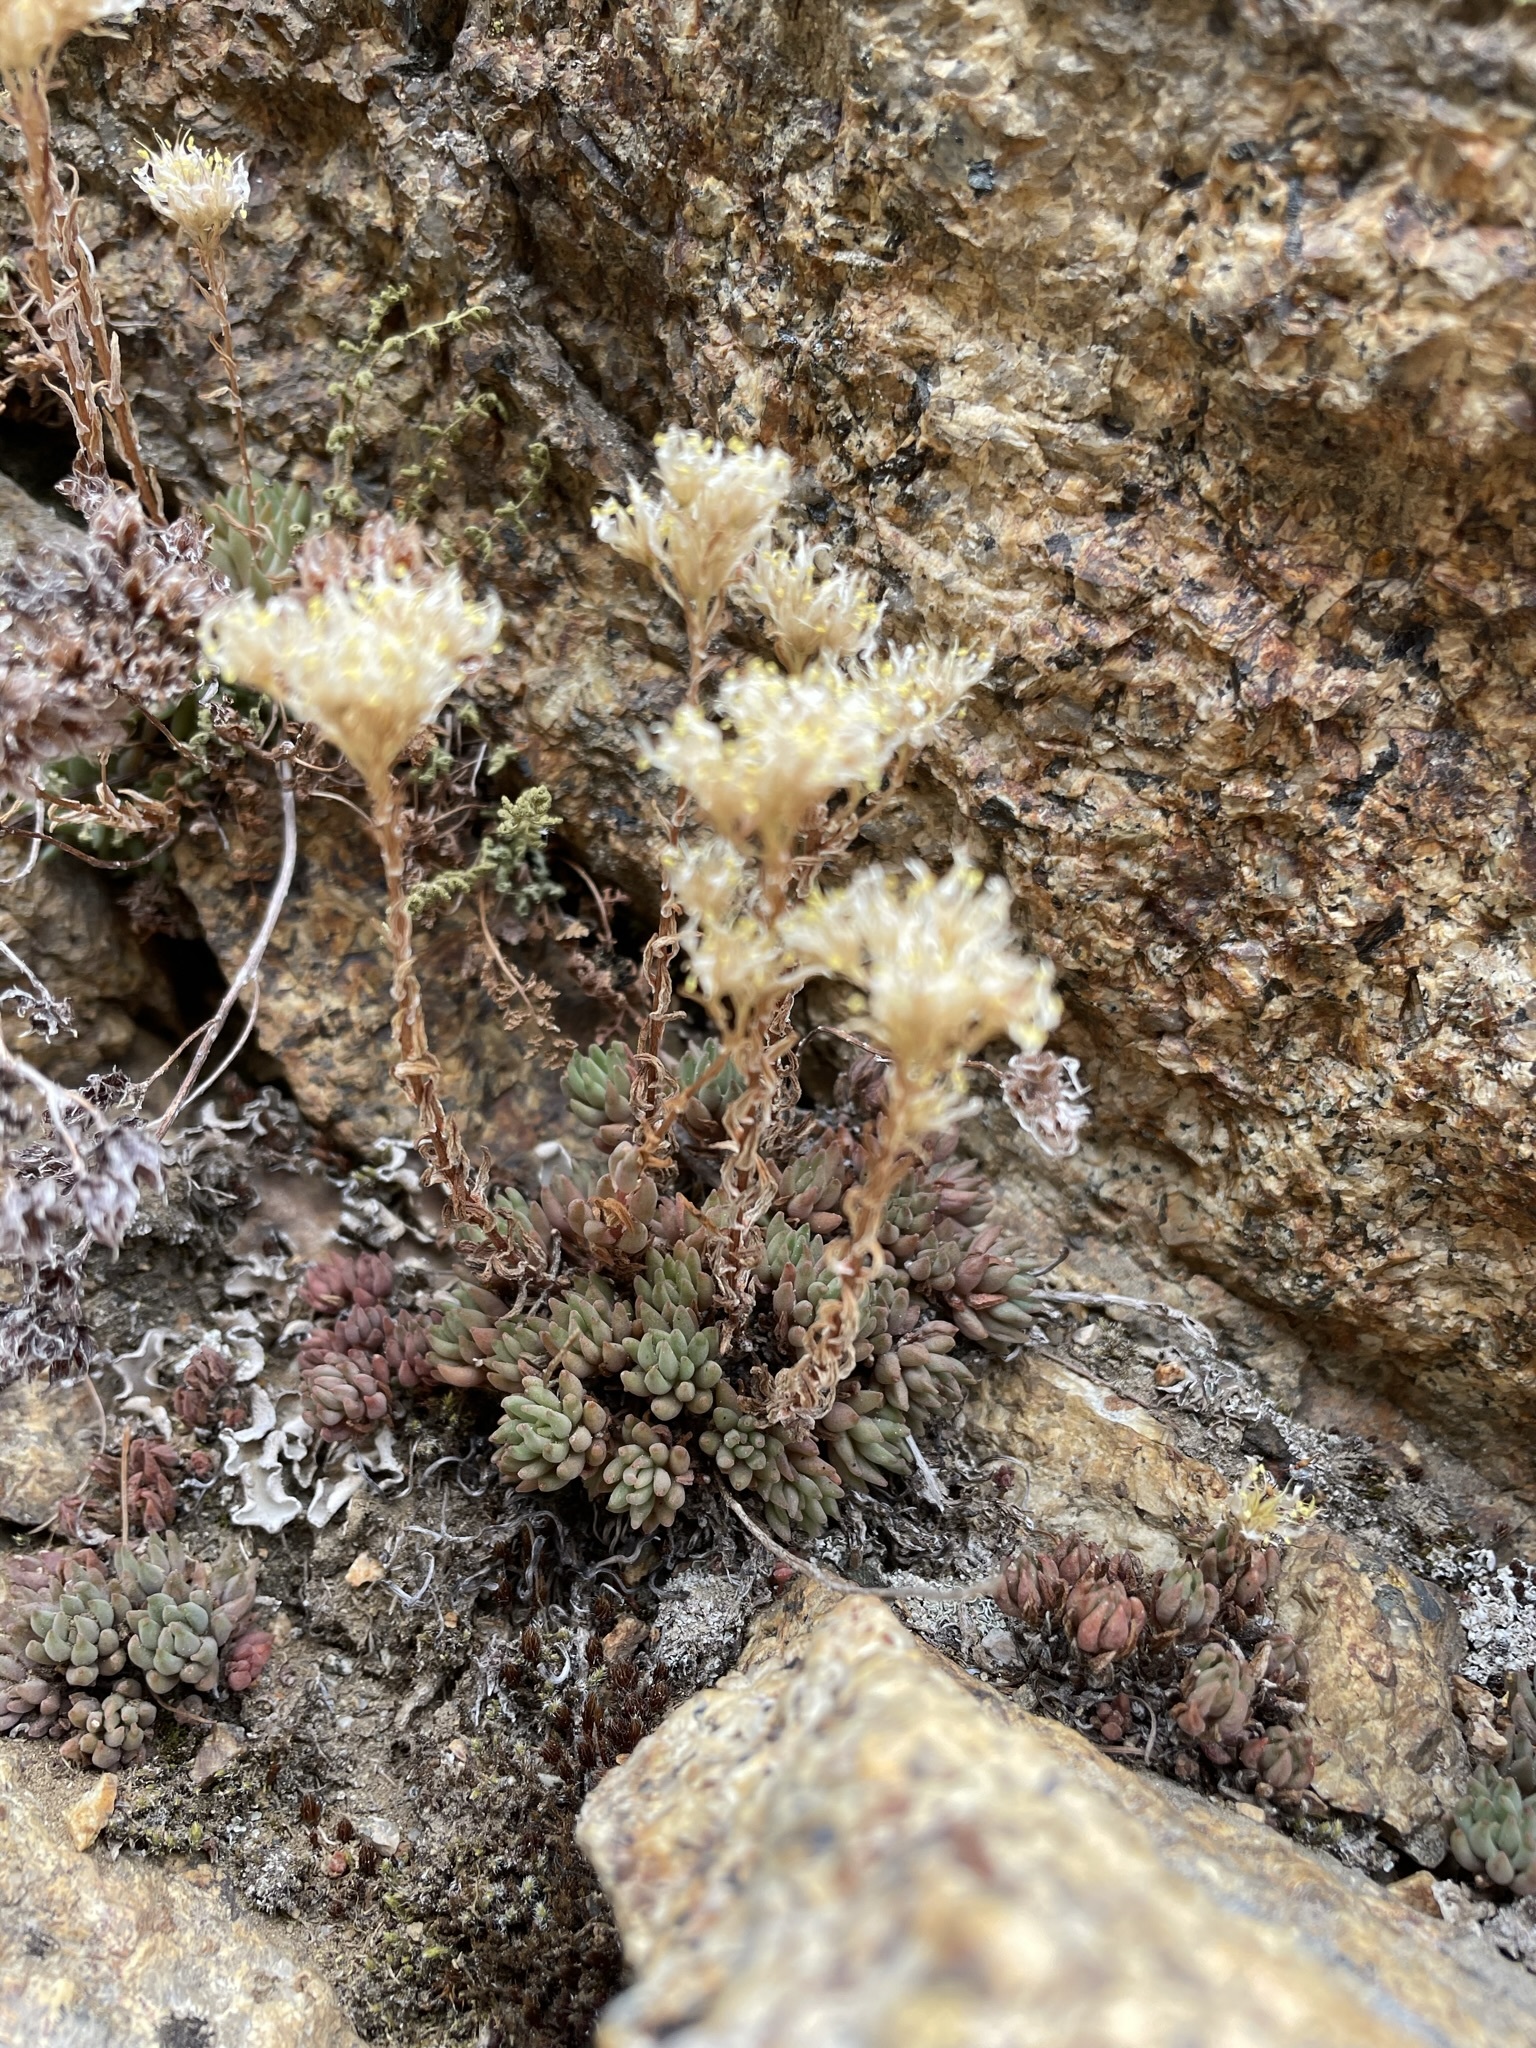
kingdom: Plantae
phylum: Tracheophyta
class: Magnoliopsida
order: Saxifragales
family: Crassulaceae
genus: Sedum
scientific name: Sedum lanceolatum
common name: Common stonecrop
